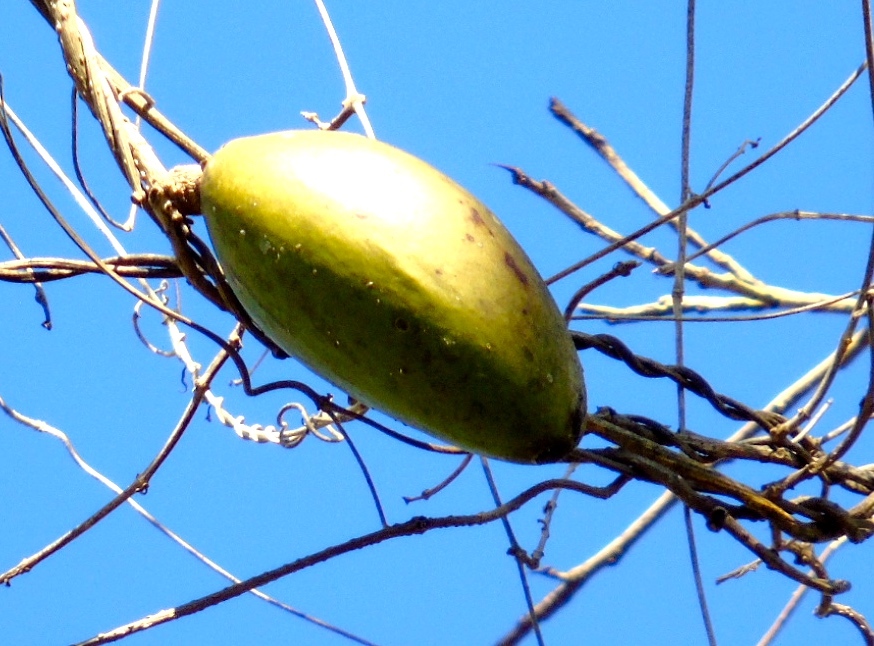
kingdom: Plantae
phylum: Tracheophyta
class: Magnoliopsida
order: Lamiales
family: Bignoniaceae
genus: Amphilophium
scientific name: Amphilophium paniculatum
